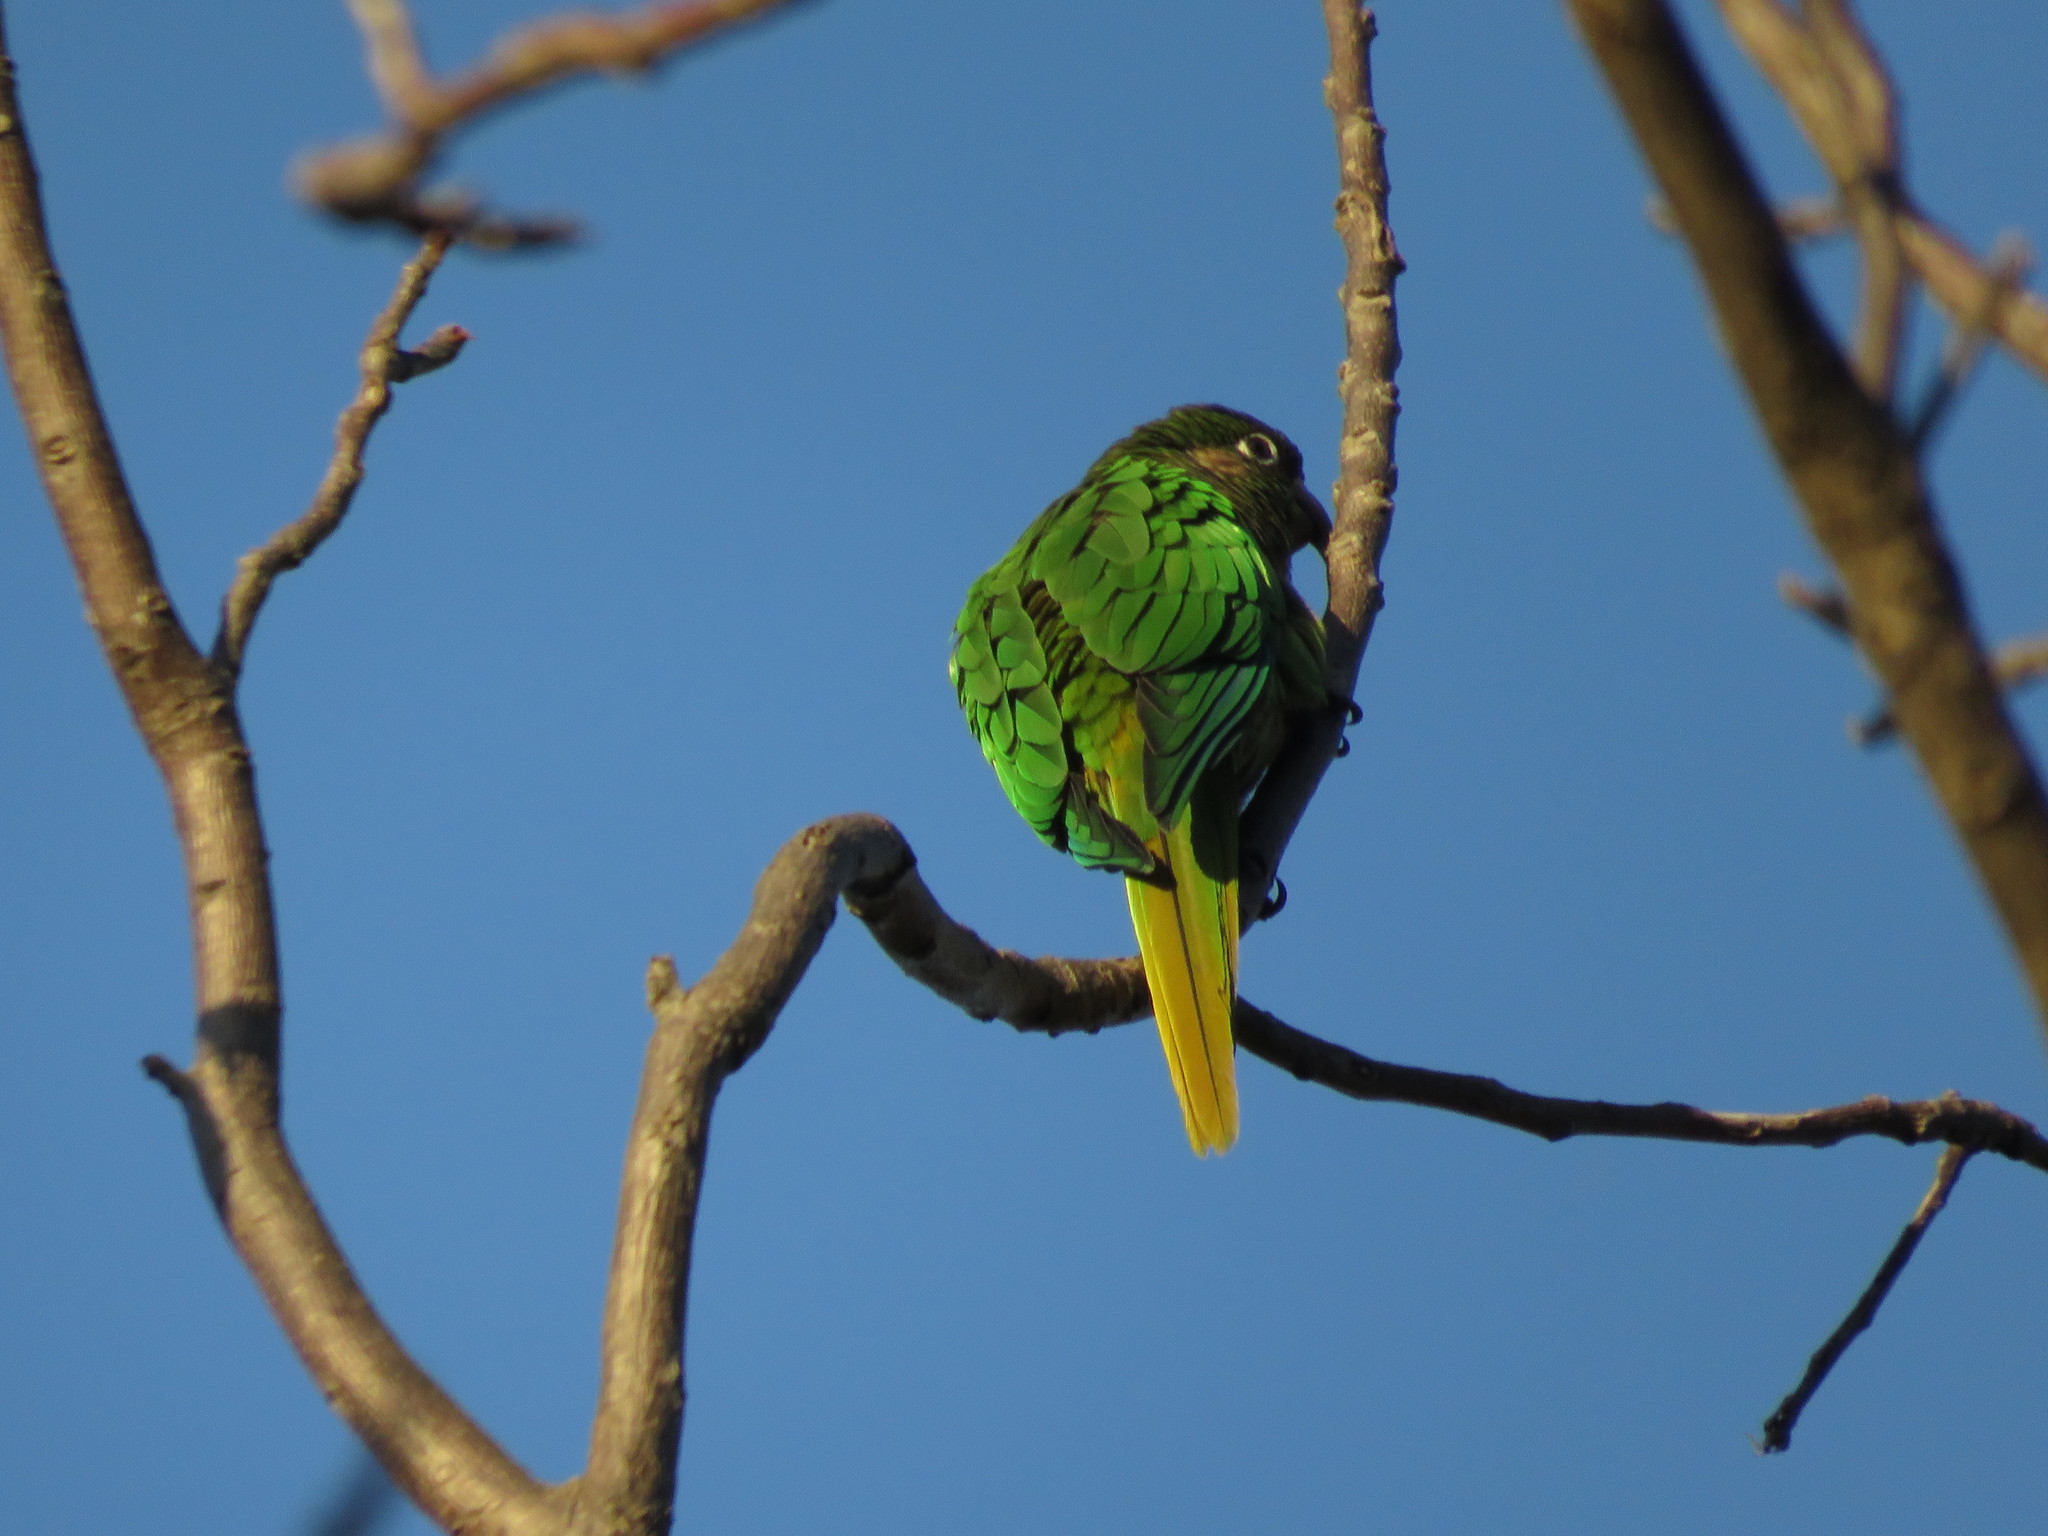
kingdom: Animalia
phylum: Chordata
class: Aves
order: Psittaciformes
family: Psittacidae
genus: Pyrrhura
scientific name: Pyrrhura frontalis
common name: Maroon-bellied parakeet
